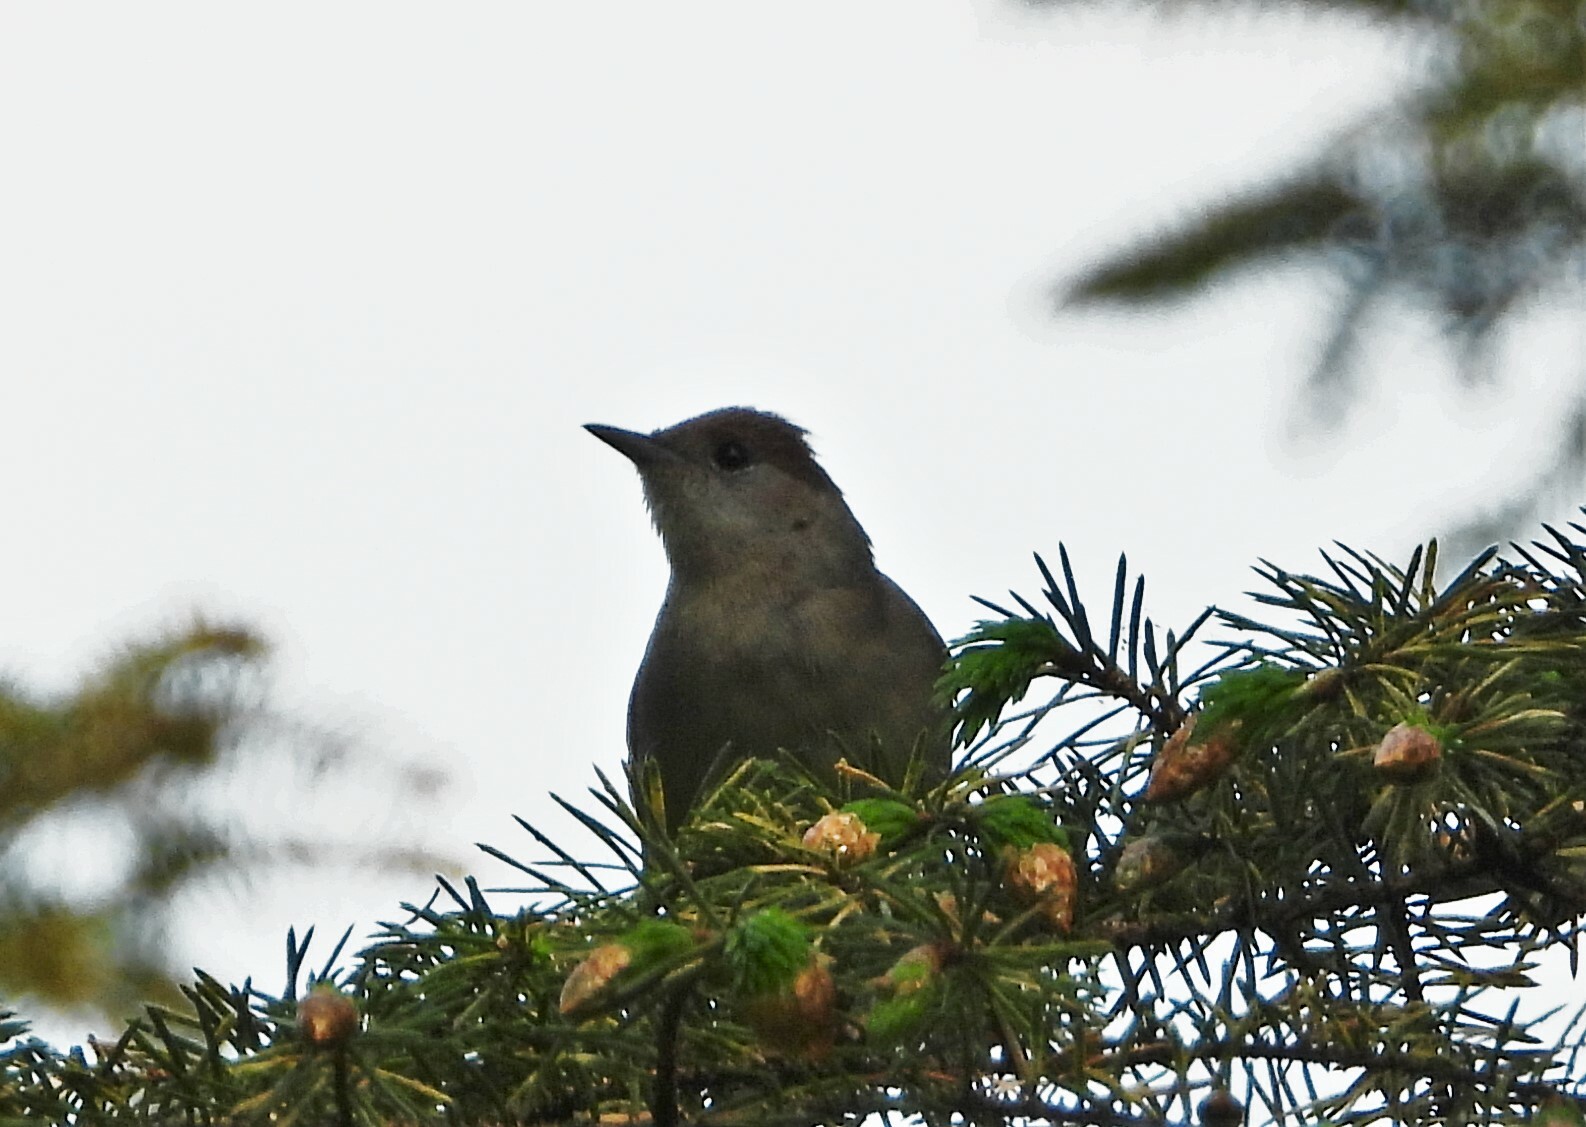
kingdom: Animalia
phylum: Chordata
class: Aves
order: Passeriformes
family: Sylviidae
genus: Sylvia
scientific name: Sylvia atricapilla
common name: Eurasian blackcap
